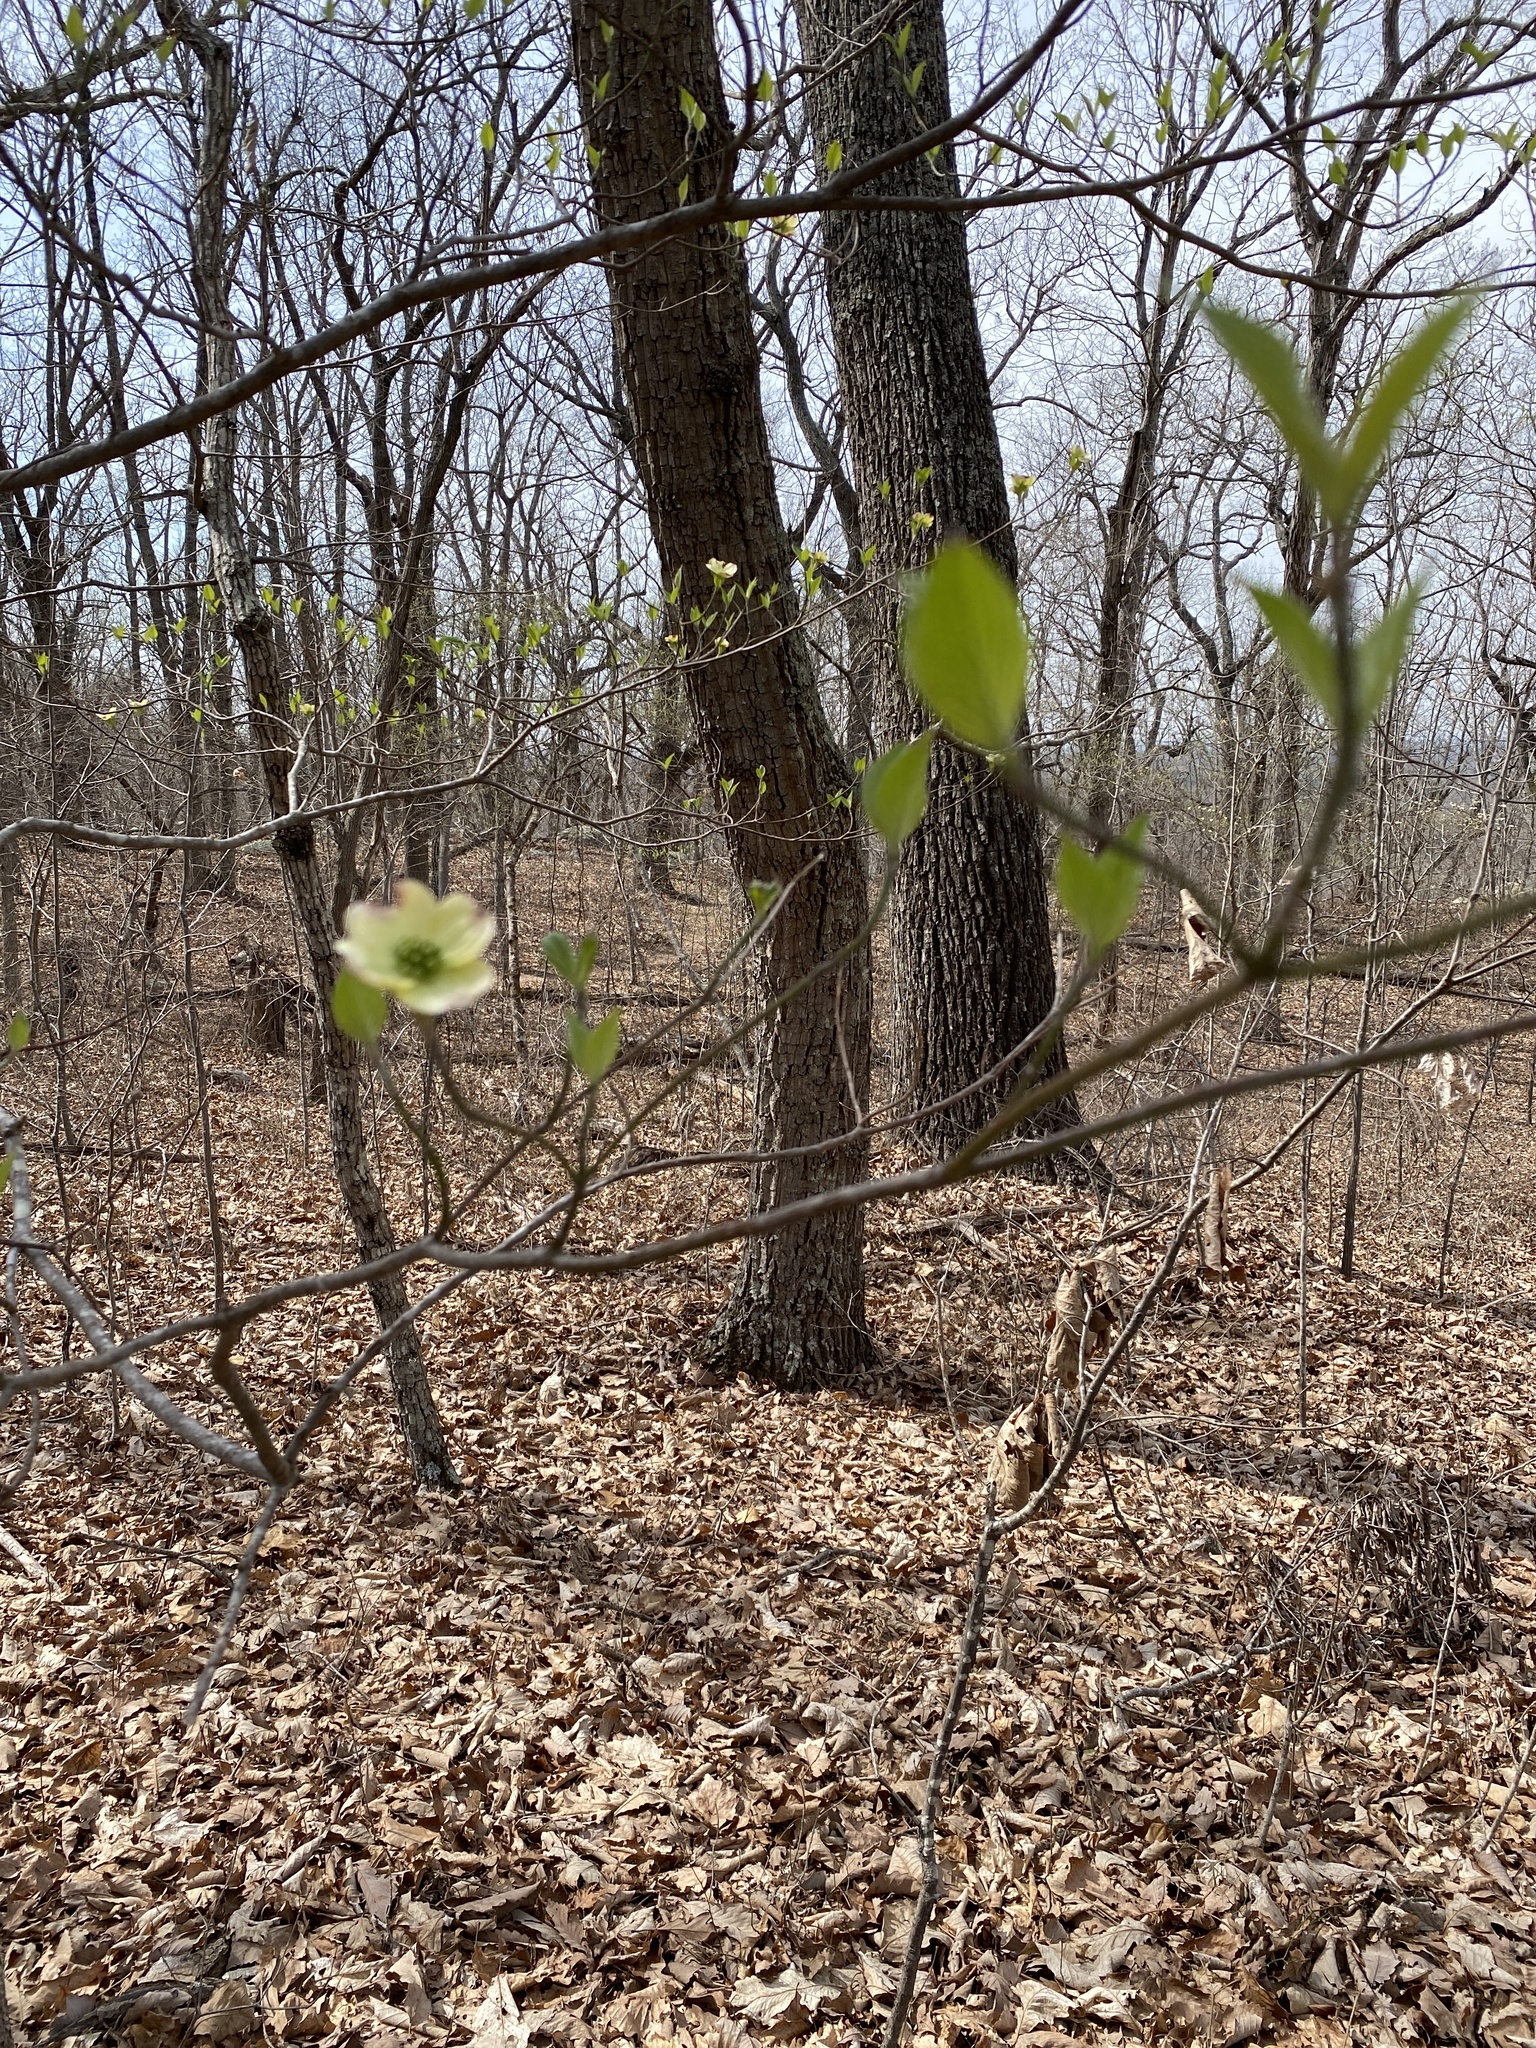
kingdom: Plantae
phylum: Tracheophyta
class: Magnoliopsida
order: Cornales
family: Cornaceae
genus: Cornus
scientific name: Cornus florida
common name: Flowering dogwood
